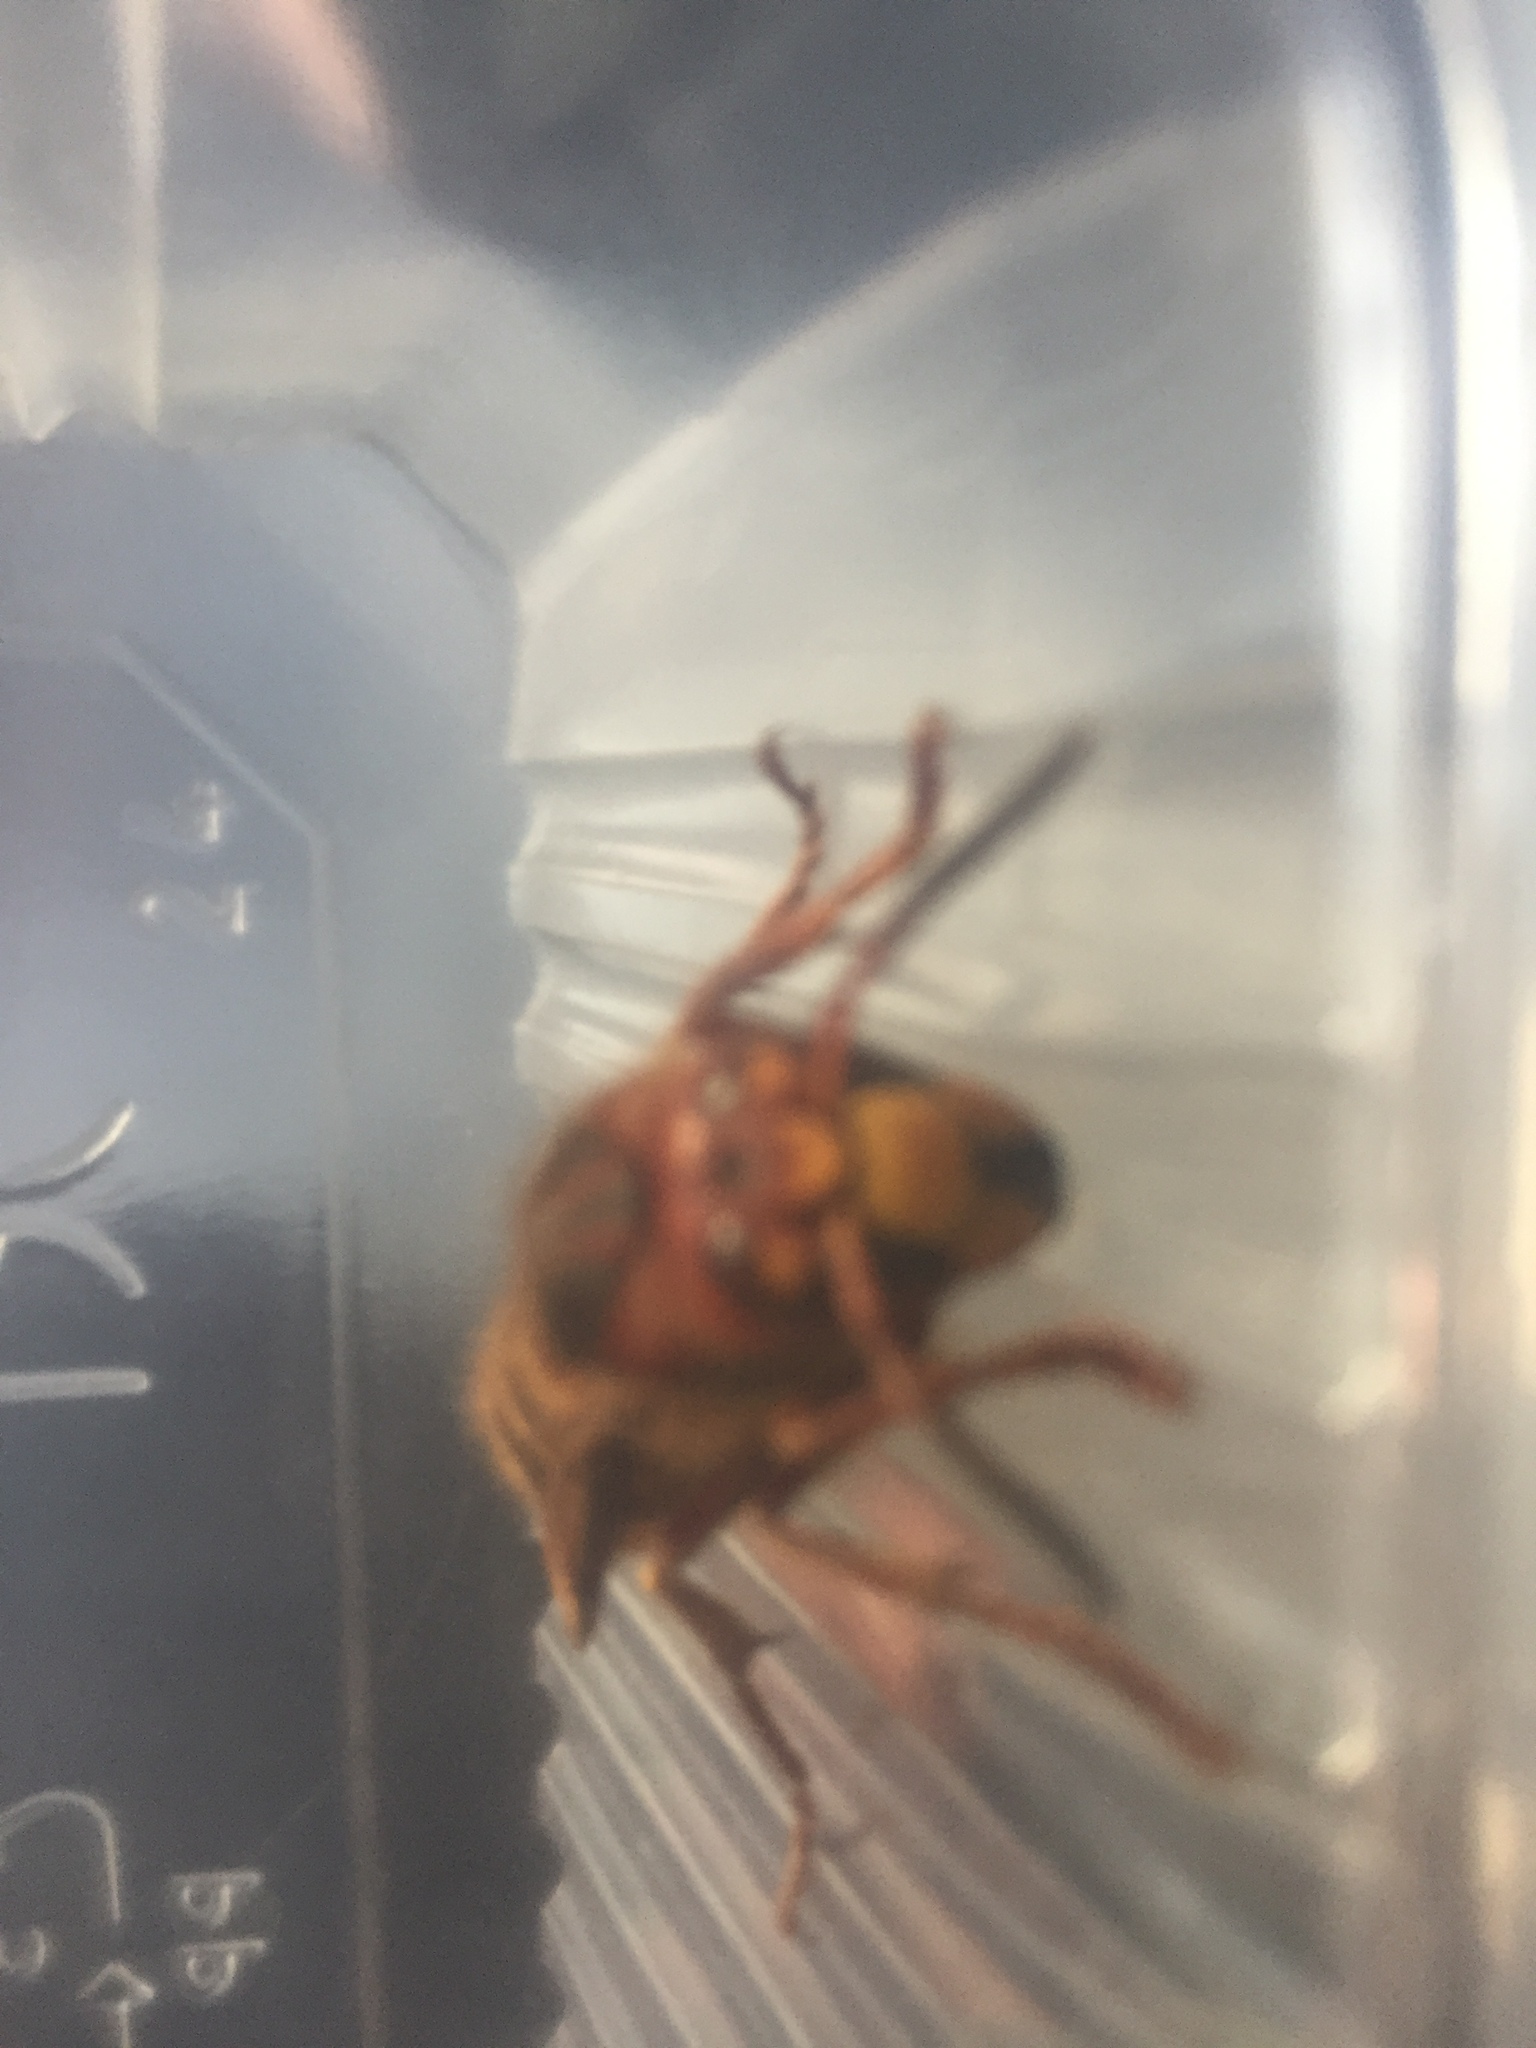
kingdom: Animalia
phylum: Arthropoda
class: Insecta
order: Hymenoptera
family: Vespidae
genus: Vespa
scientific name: Vespa crabro
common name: Hornet
